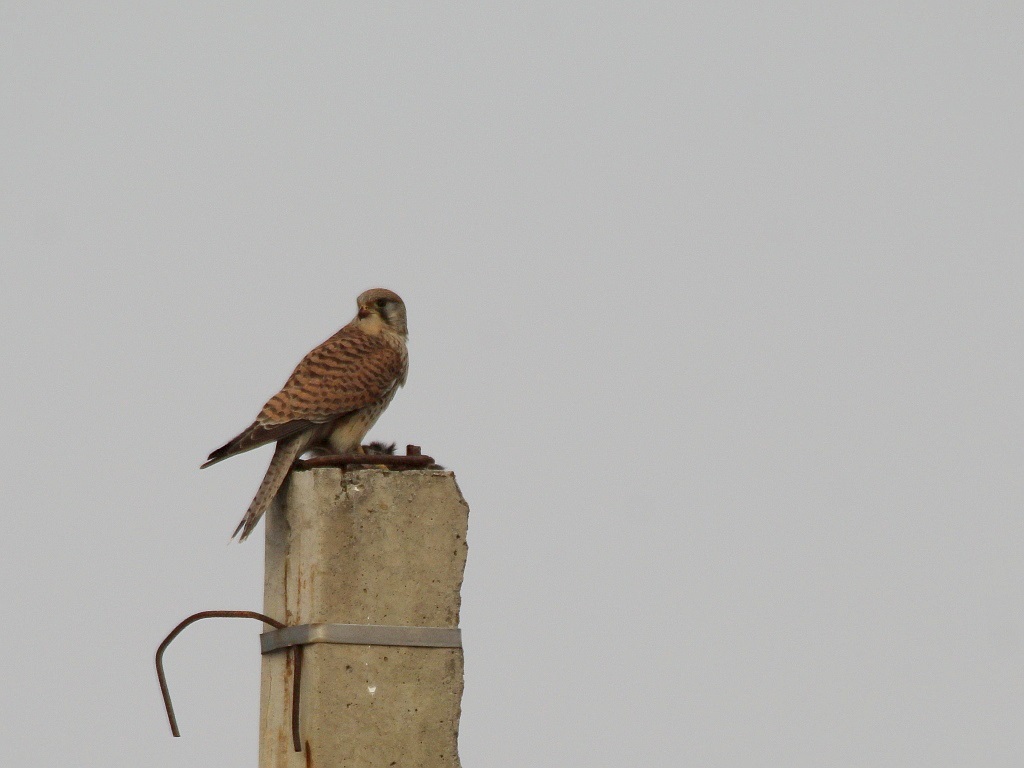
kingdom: Animalia
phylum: Chordata
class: Aves
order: Falconiformes
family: Falconidae
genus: Falco
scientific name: Falco tinnunculus
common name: Common kestrel
